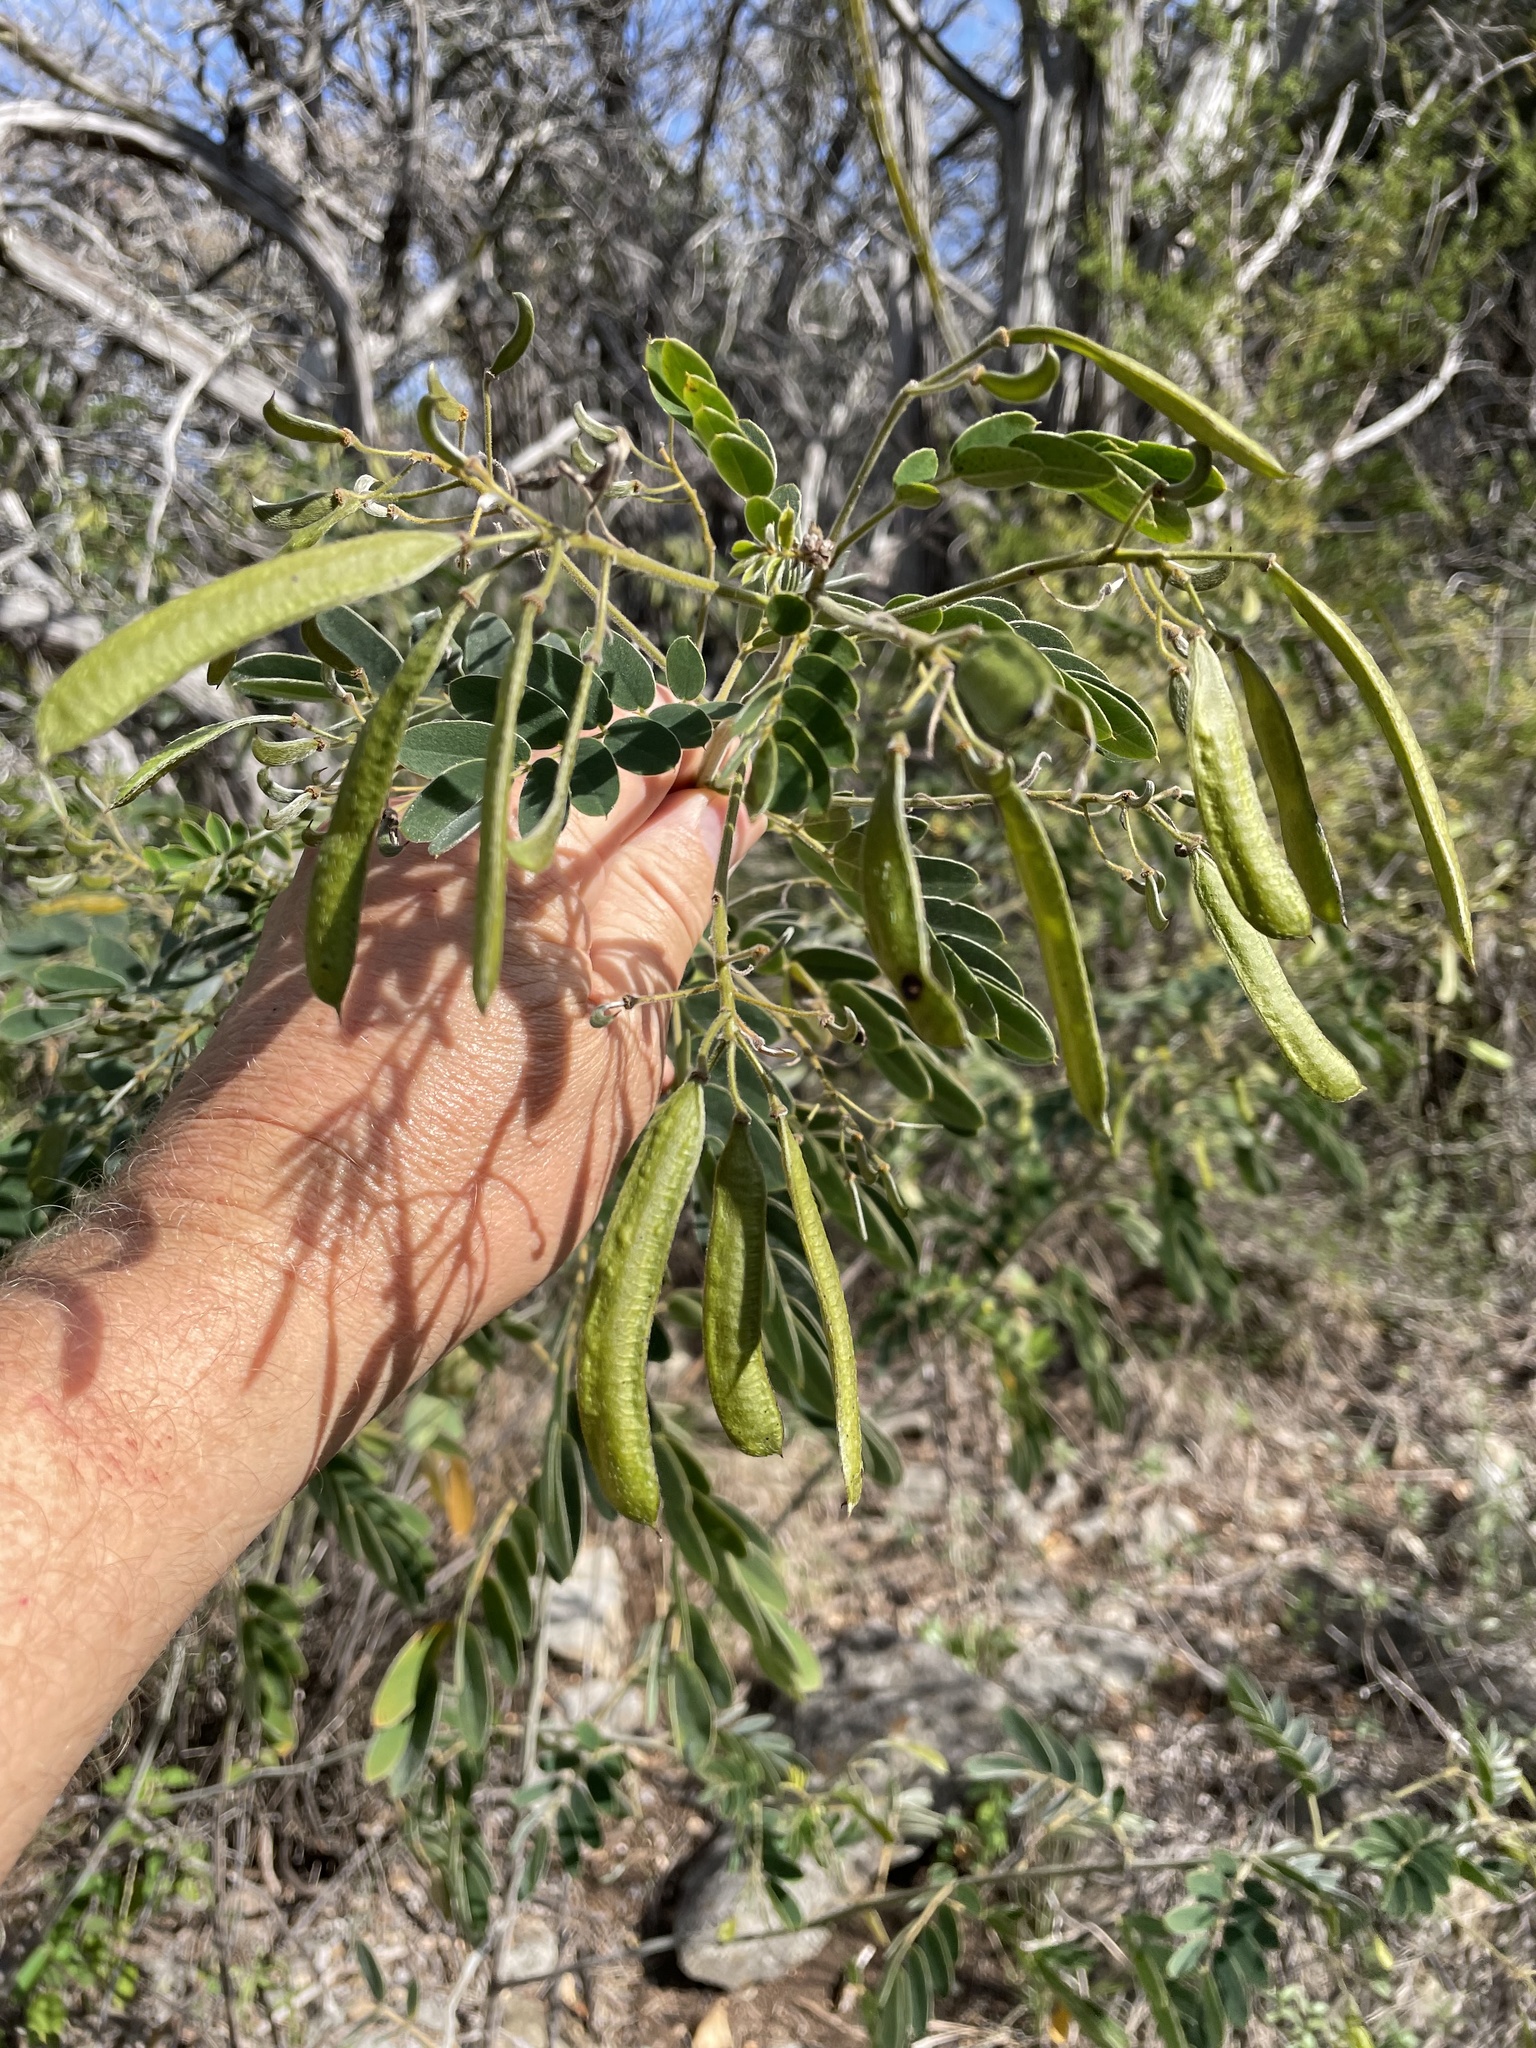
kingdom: Plantae
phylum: Tracheophyta
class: Magnoliopsida
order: Fabales
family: Fabaceae
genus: Senna
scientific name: Senna lindheimeriana
